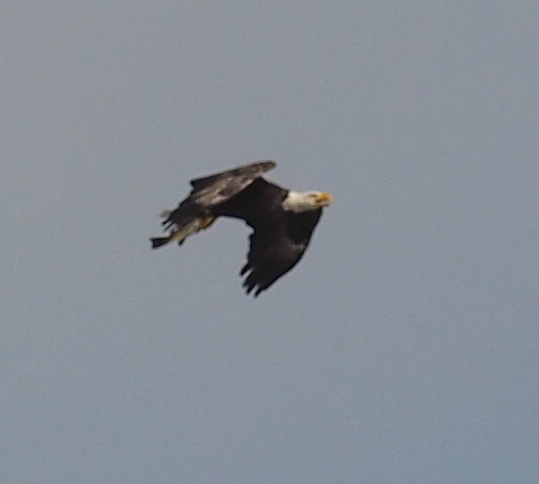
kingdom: Animalia
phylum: Chordata
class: Aves
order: Accipitriformes
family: Accipitridae
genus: Haliaeetus
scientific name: Haliaeetus leucocephalus
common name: Bald eagle
